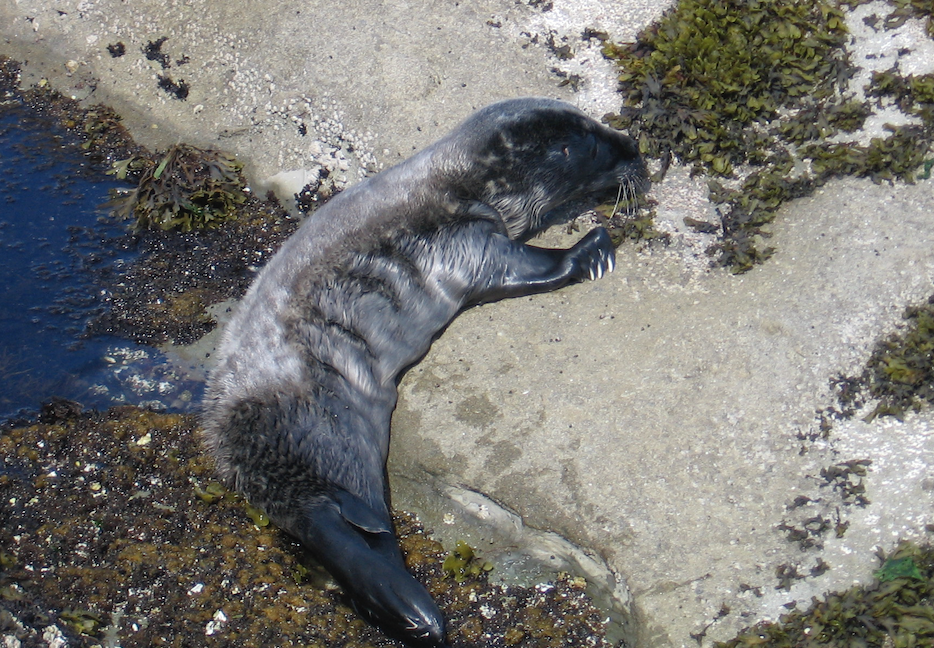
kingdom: Animalia
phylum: Chordata
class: Mammalia
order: Carnivora
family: Phocidae
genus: Phoca
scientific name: Phoca vitulina
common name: Harbor seal
